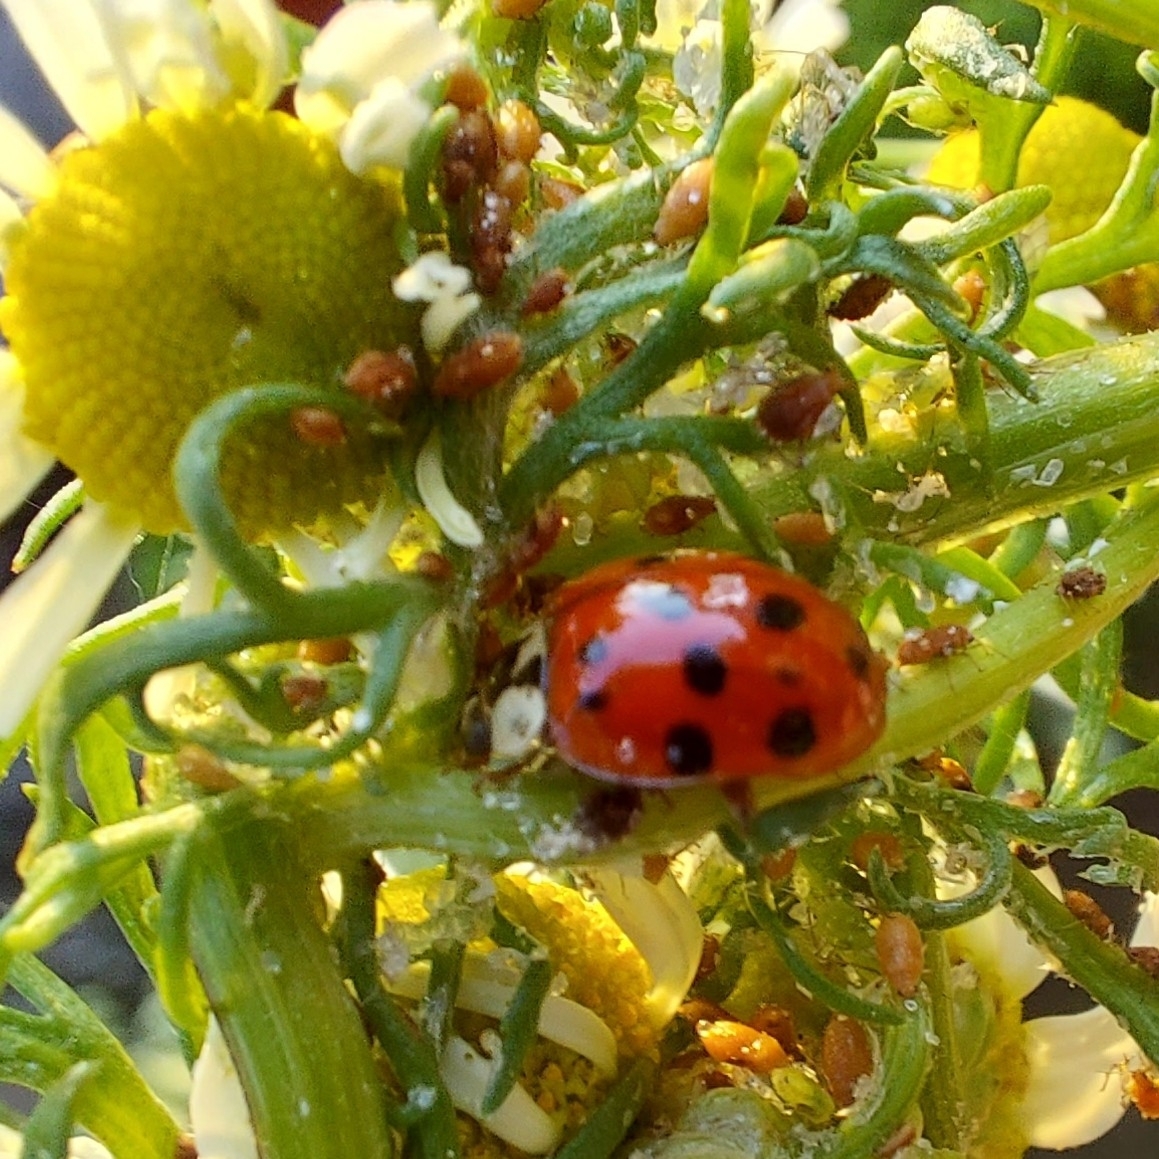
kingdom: Animalia
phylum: Arthropoda
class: Insecta
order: Coleoptera
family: Coccinellidae
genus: Harmonia
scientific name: Harmonia axyridis
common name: Harlequin ladybird
